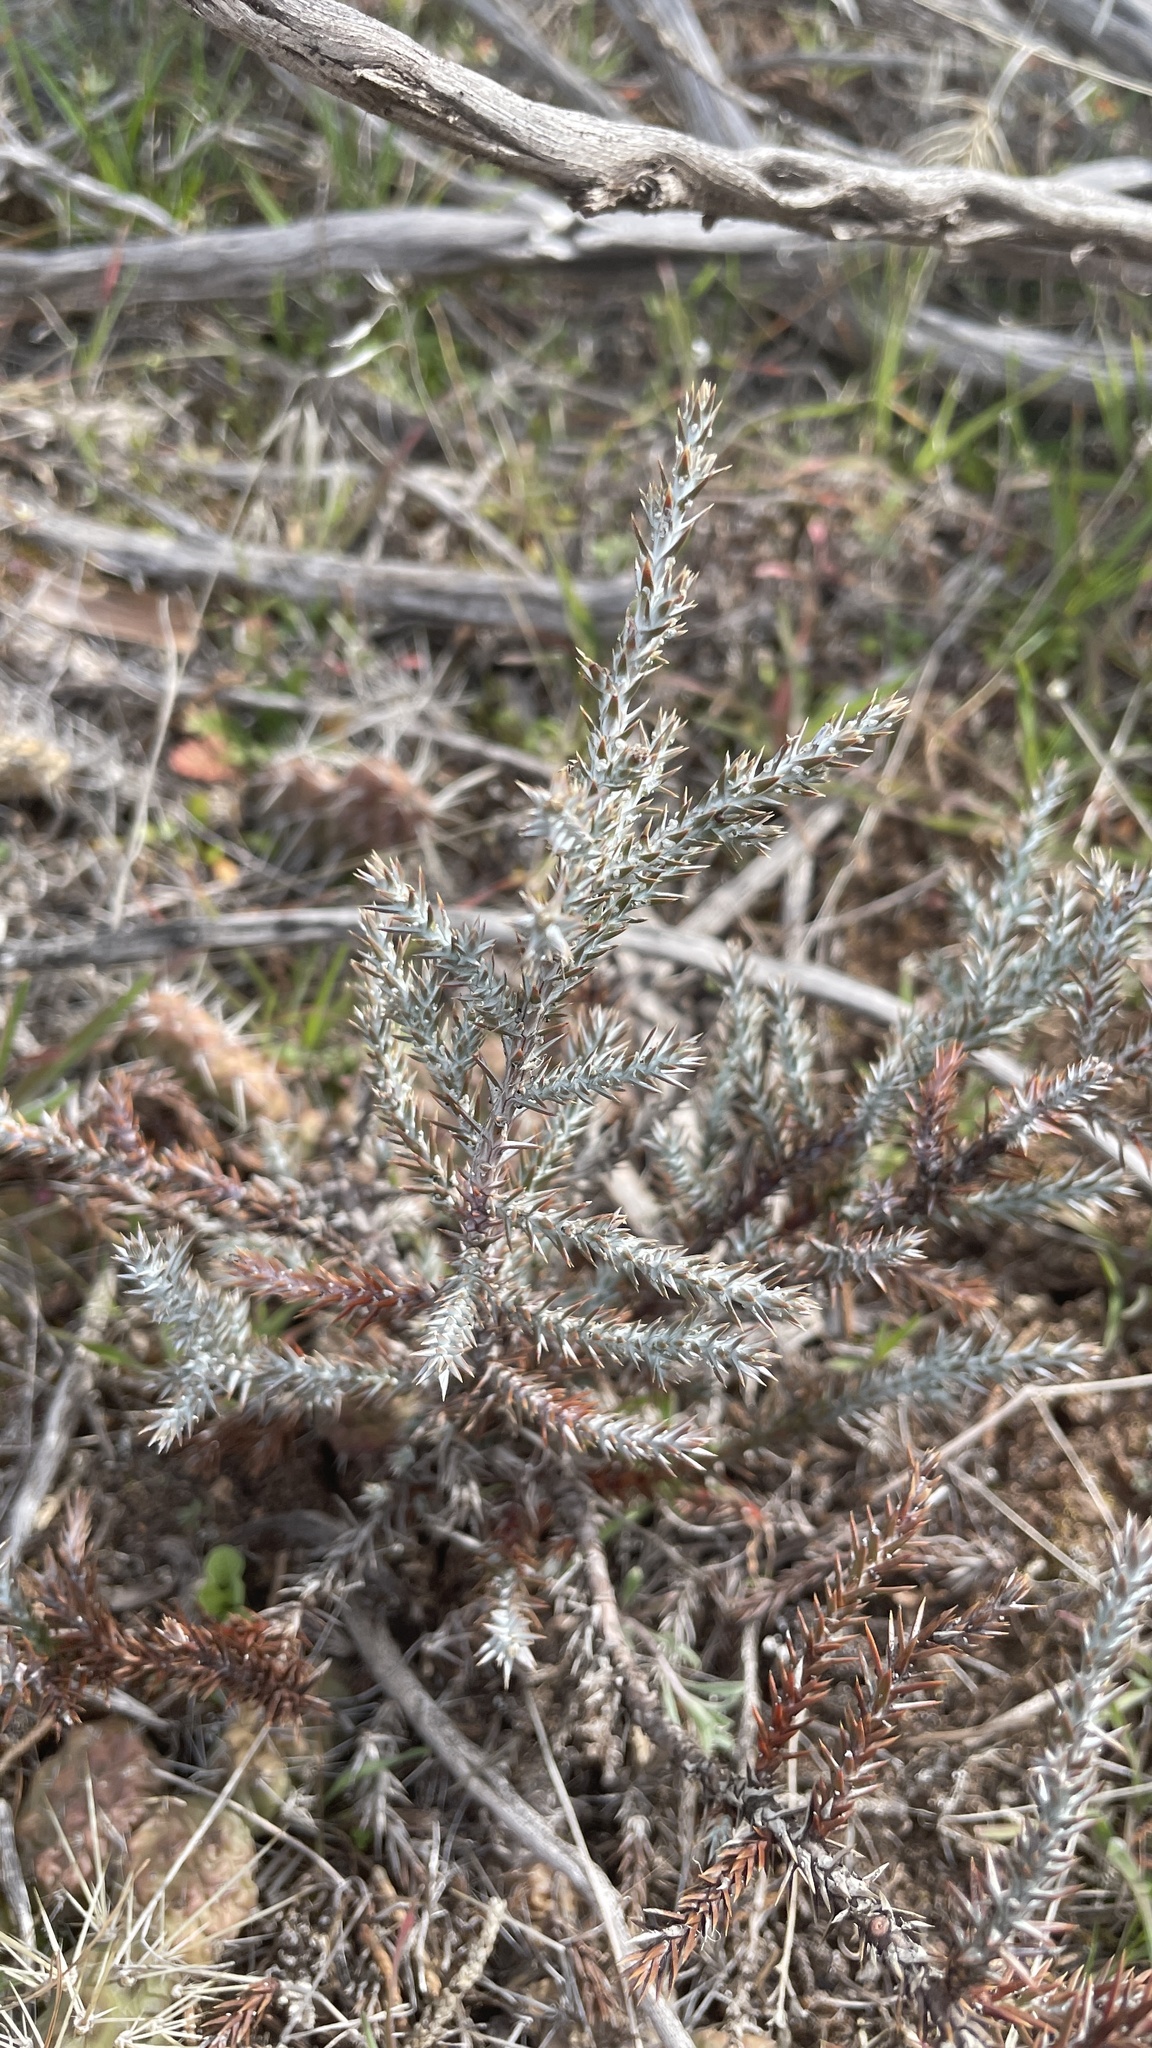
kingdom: Plantae
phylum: Tracheophyta
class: Pinopsida
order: Pinales
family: Cupressaceae
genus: Juniperus
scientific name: Juniperus occidentalis
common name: Western juniper
